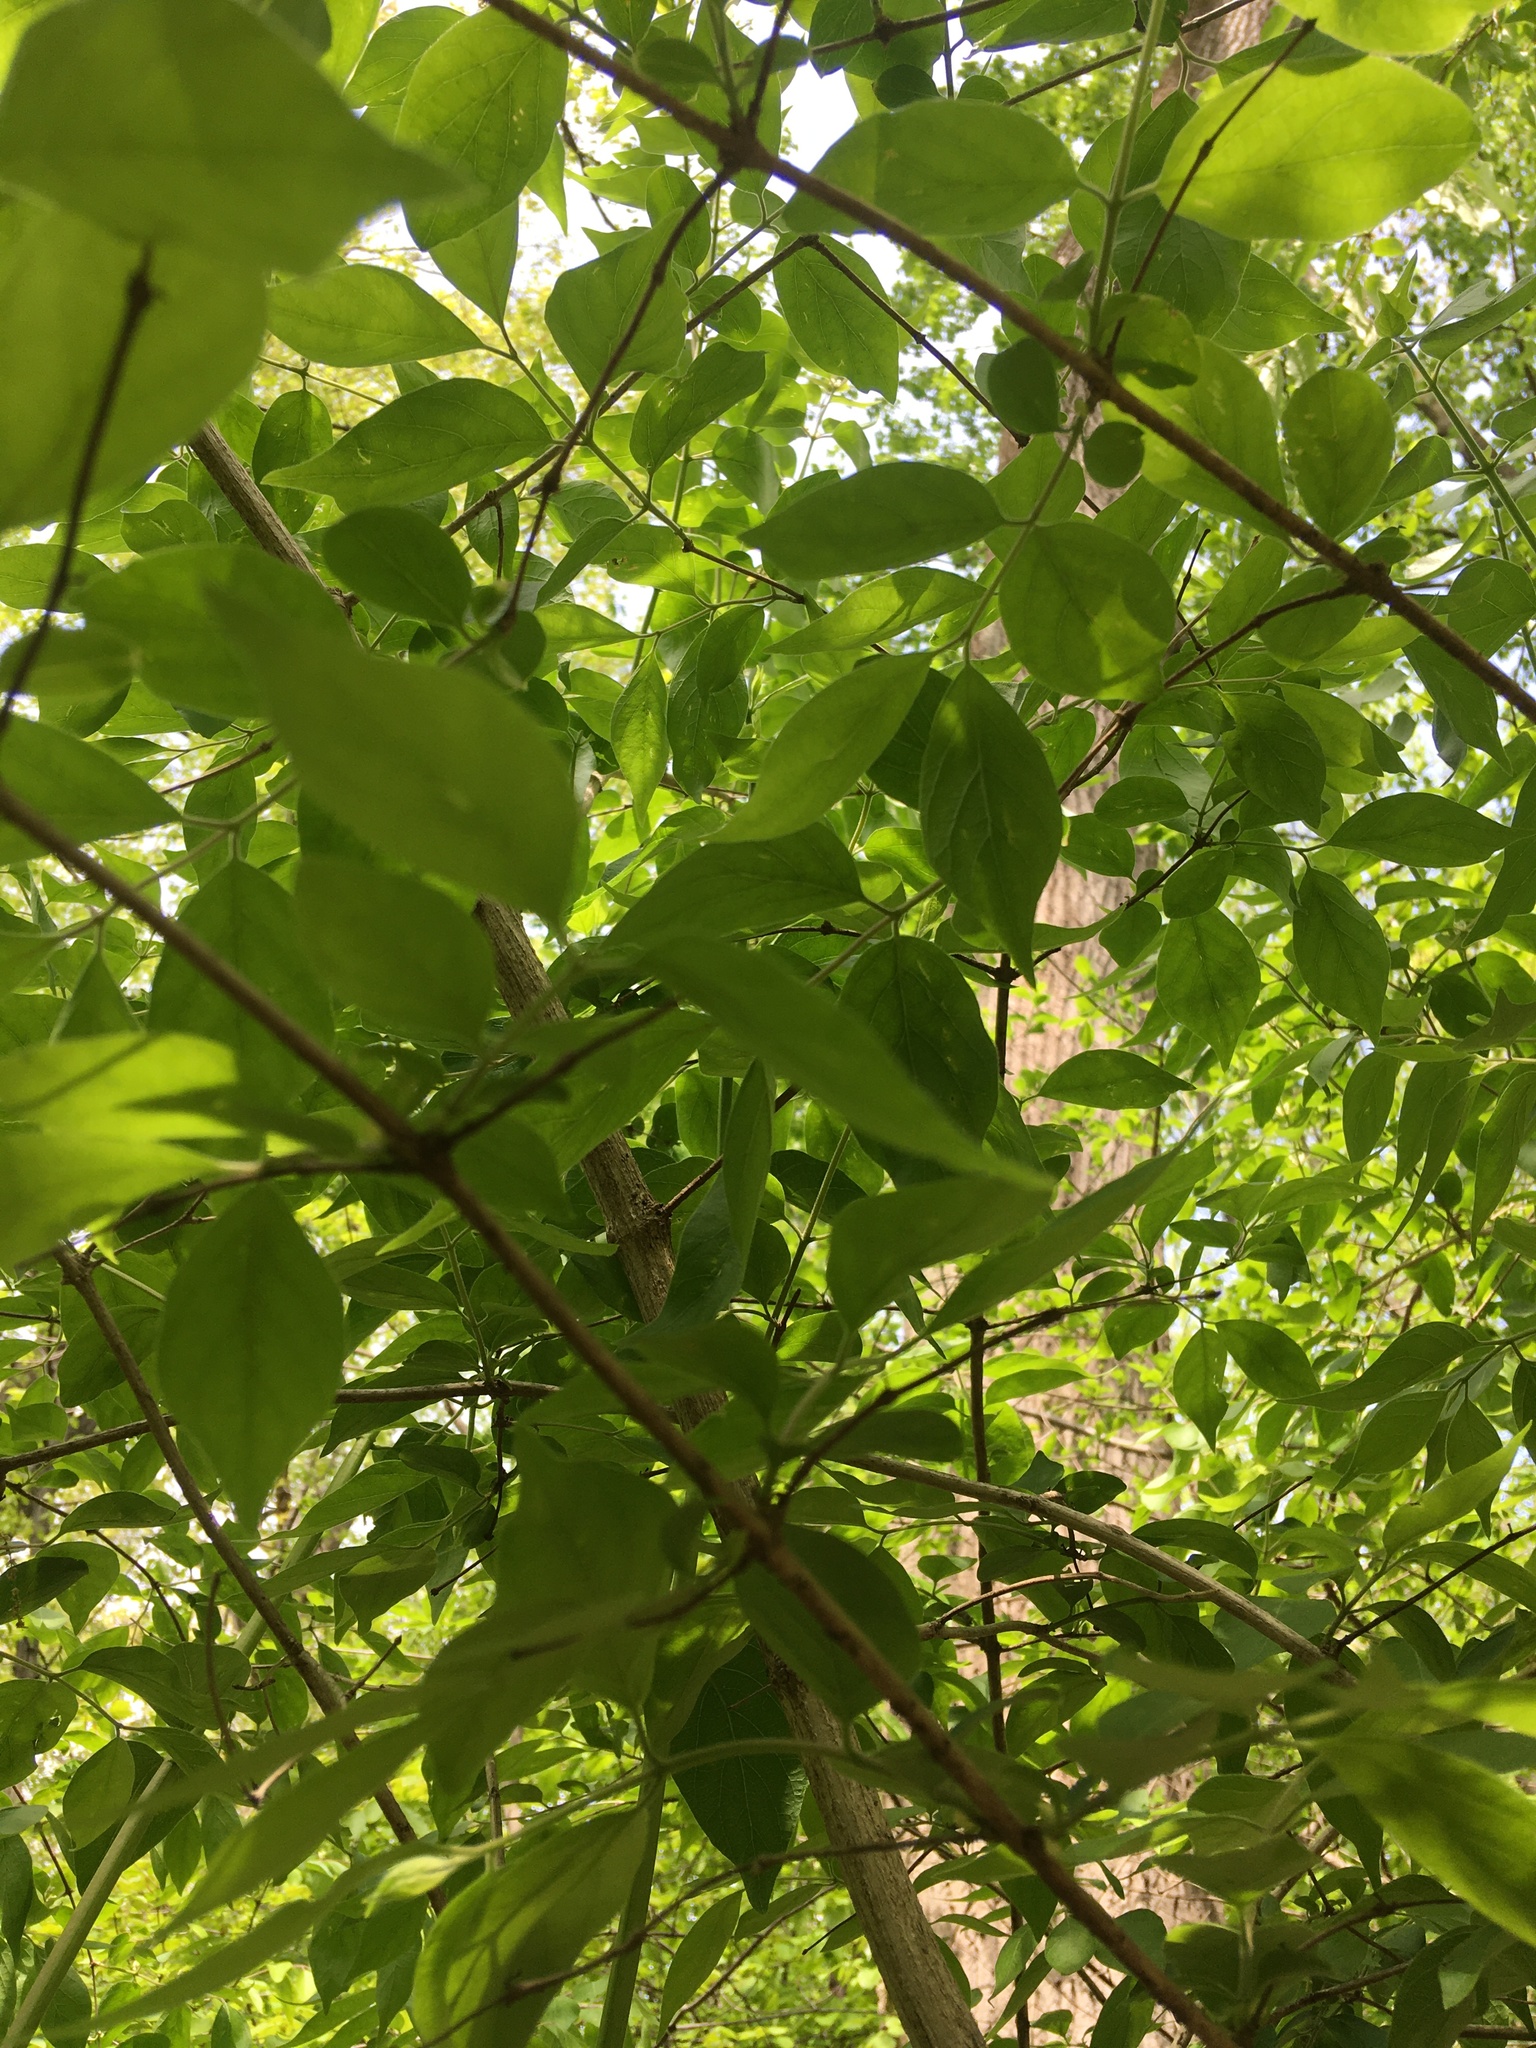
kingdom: Plantae
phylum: Tracheophyta
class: Magnoliopsida
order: Dipsacales
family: Caprifoliaceae
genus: Lonicera
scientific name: Lonicera maackii
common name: Amur honeysuckle
